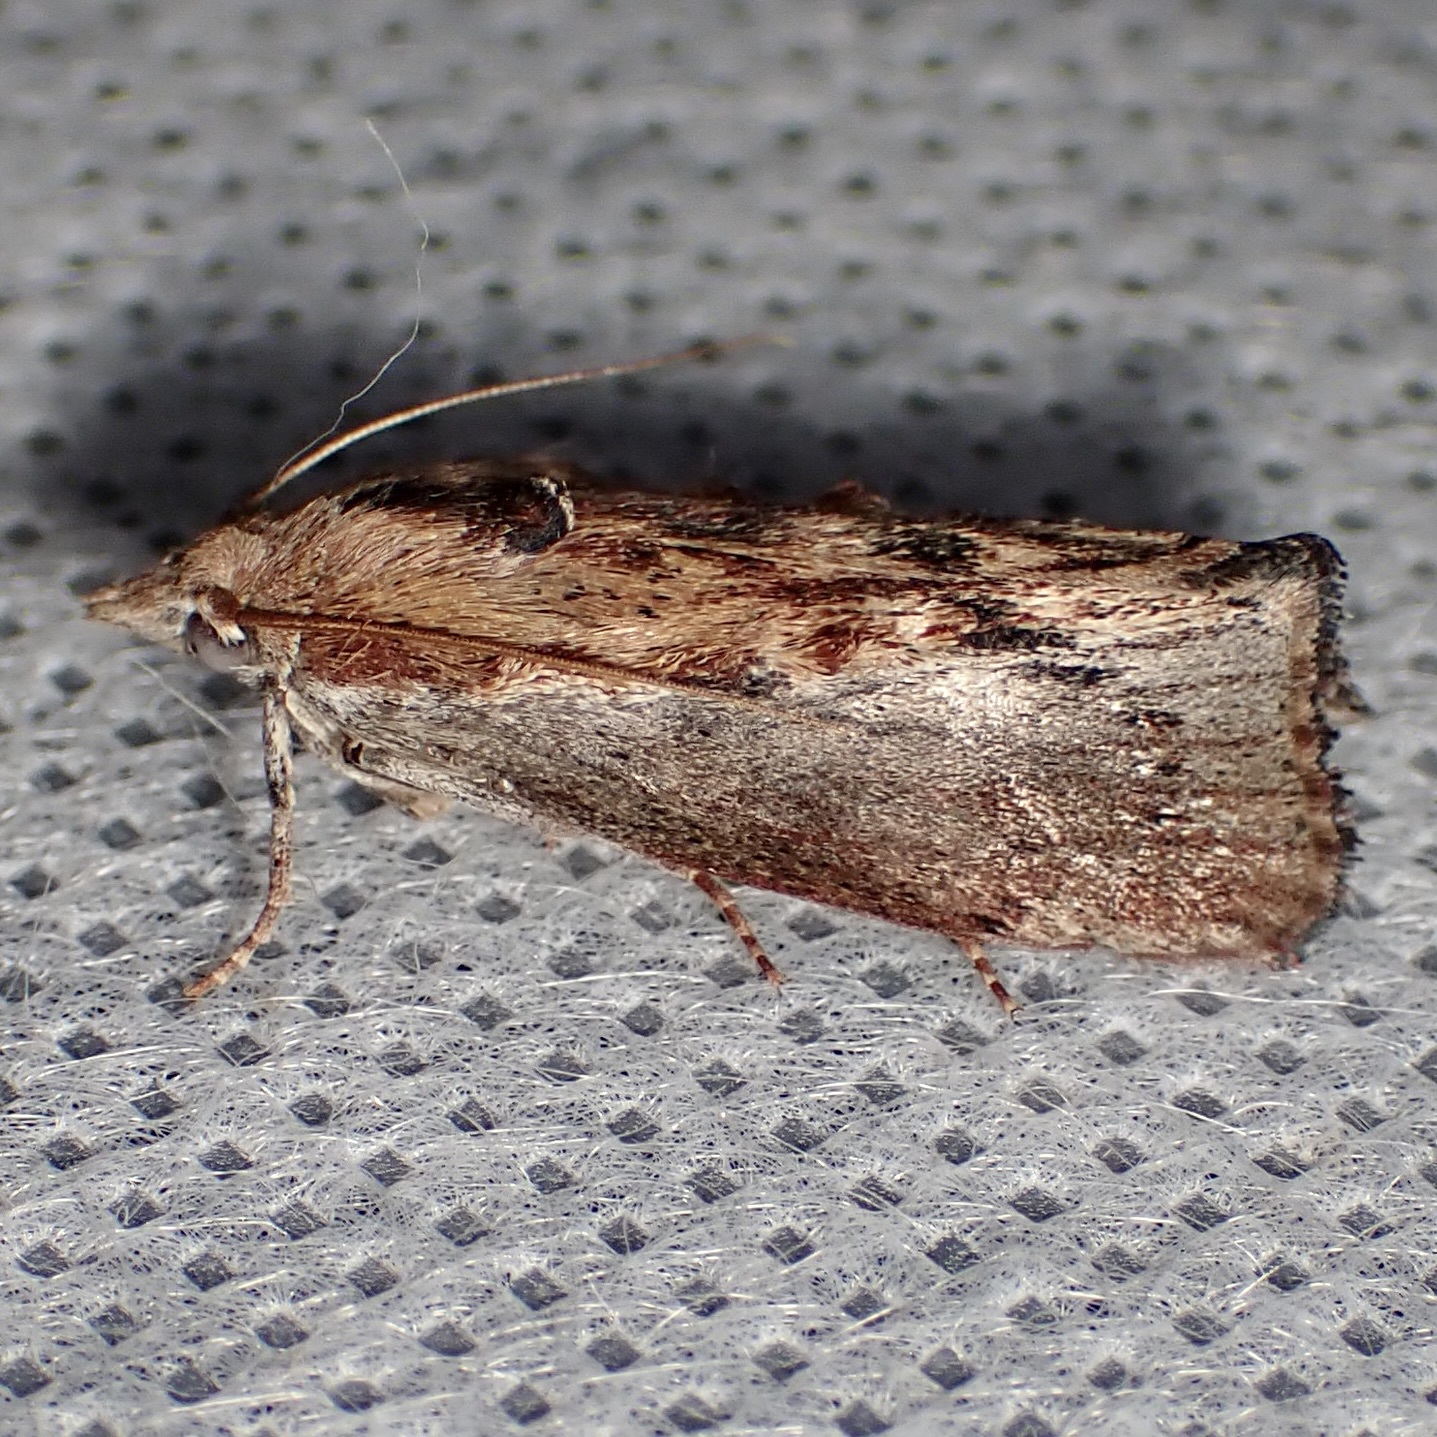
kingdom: Animalia
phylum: Arthropoda
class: Insecta
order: Lepidoptera
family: Pyralidae
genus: Galleria
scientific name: Galleria mellonella
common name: Greater wax moth
